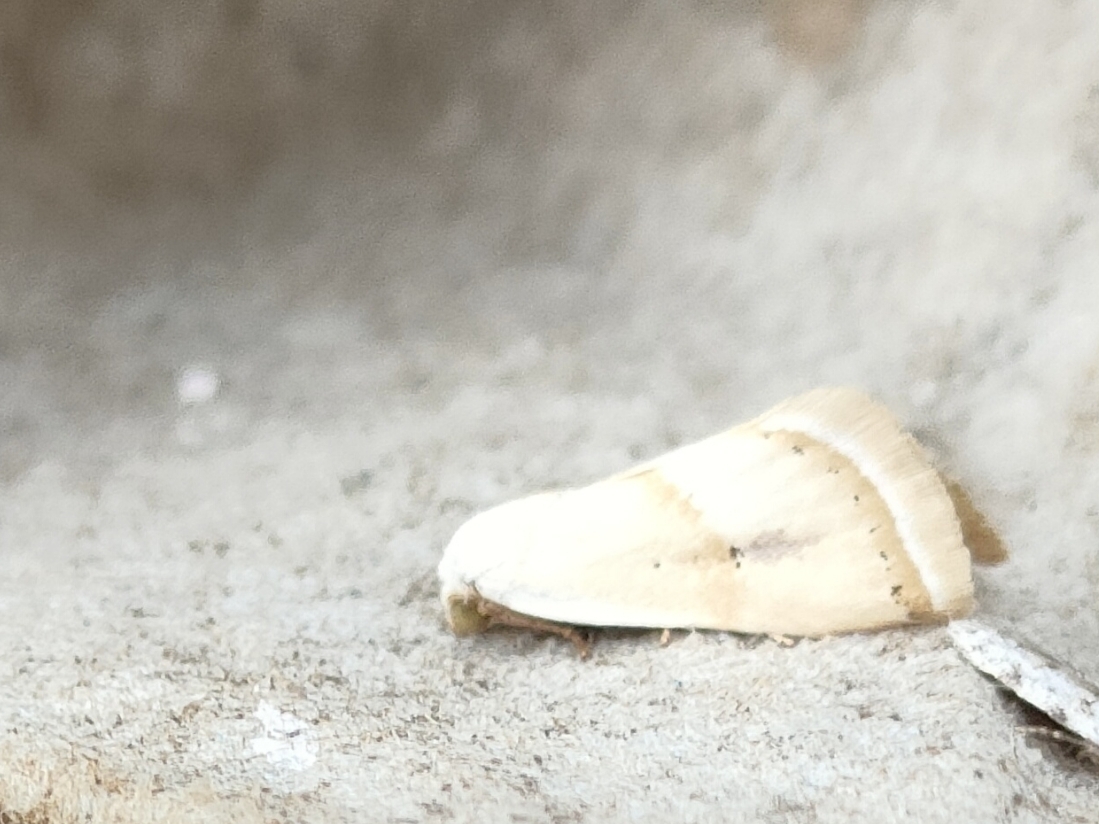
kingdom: Animalia
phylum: Arthropoda
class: Insecta
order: Lepidoptera
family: Noctuidae
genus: Eublemma
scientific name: Eublemma pura
